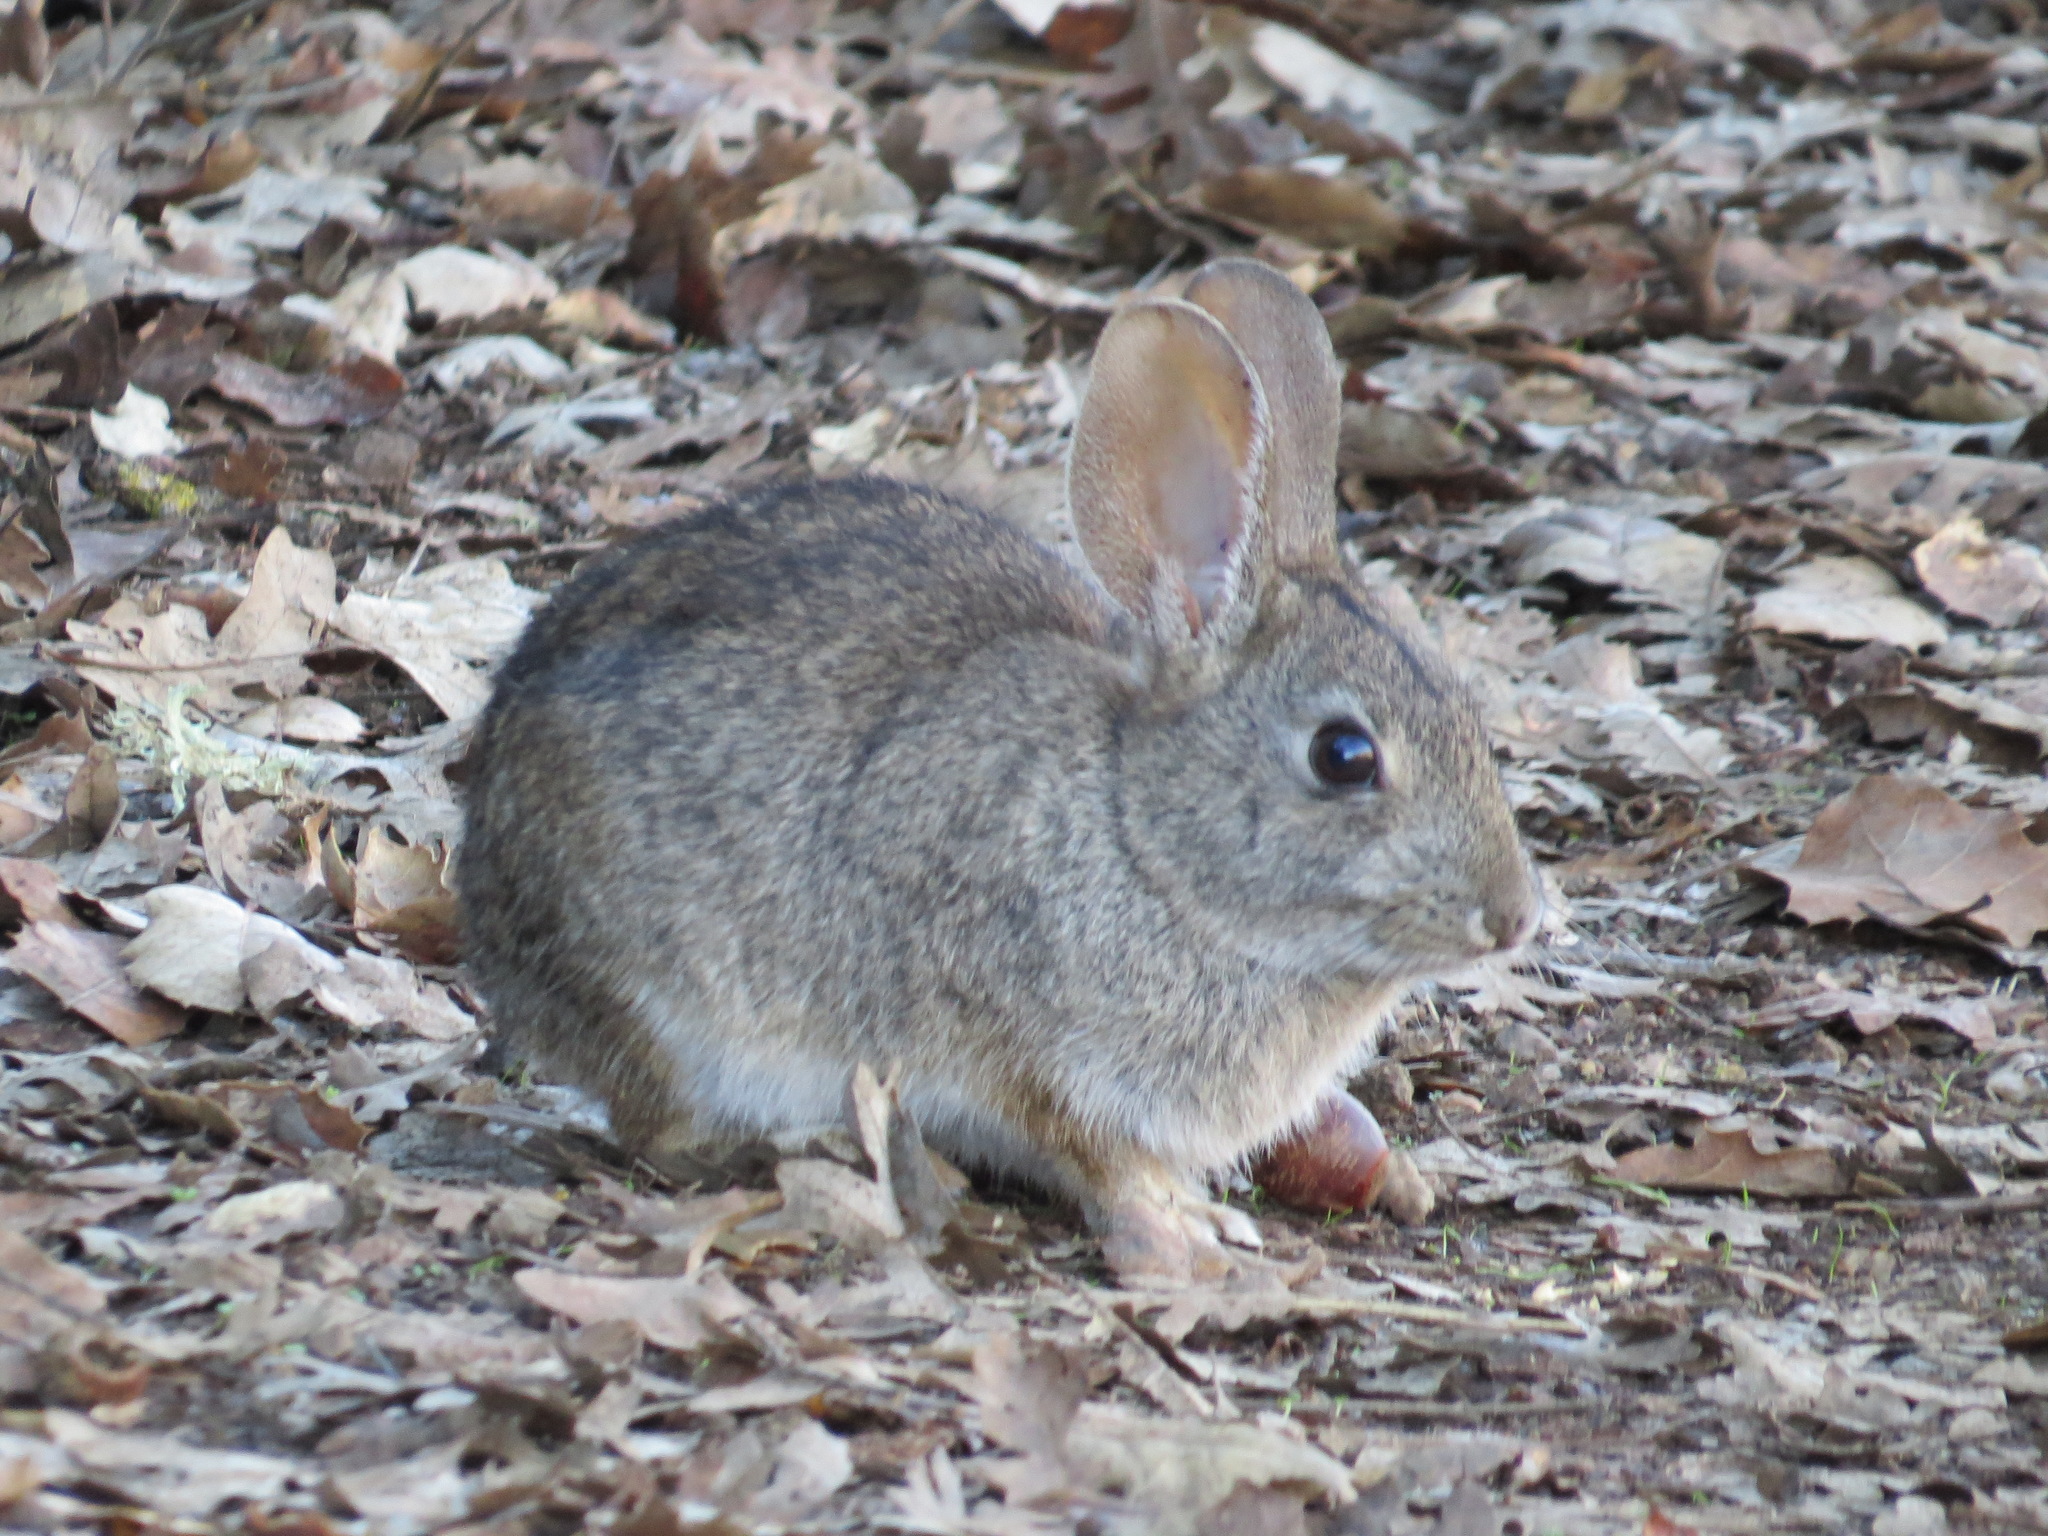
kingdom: Animalia
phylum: Chordata
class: Mammalia
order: Lagomorpha
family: Leporidae
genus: Sylvilagus
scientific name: Sylvilagus bachmani
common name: Brush rabbit
